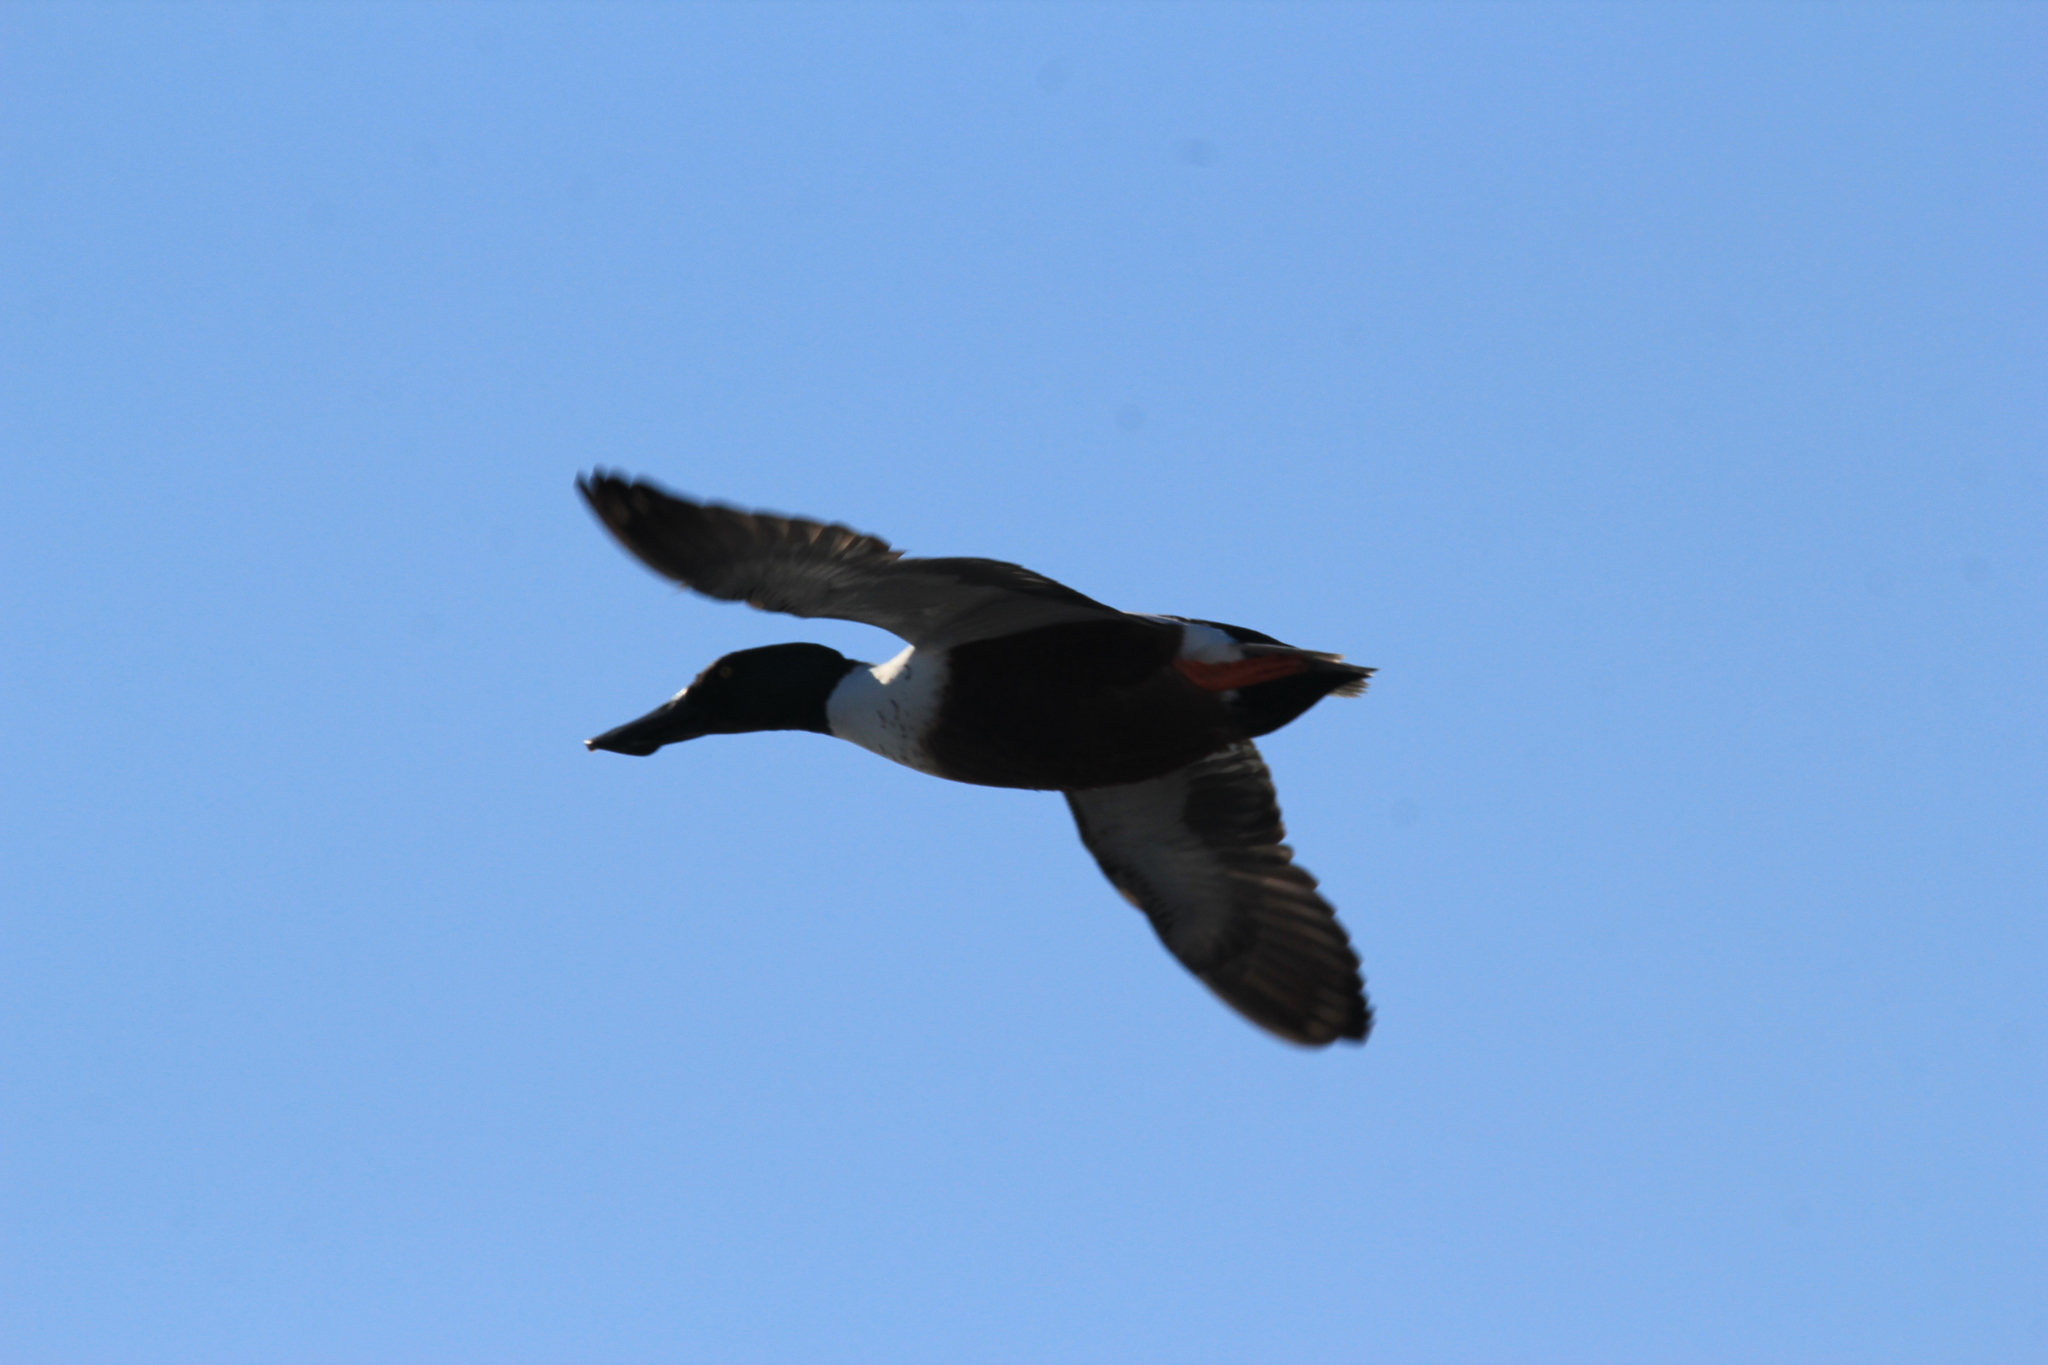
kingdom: Animalia
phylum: Chordata
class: Aves
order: Anseriformes
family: Anatidae
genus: Spatula
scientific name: Spatula clypeata
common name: Northern shoveler
